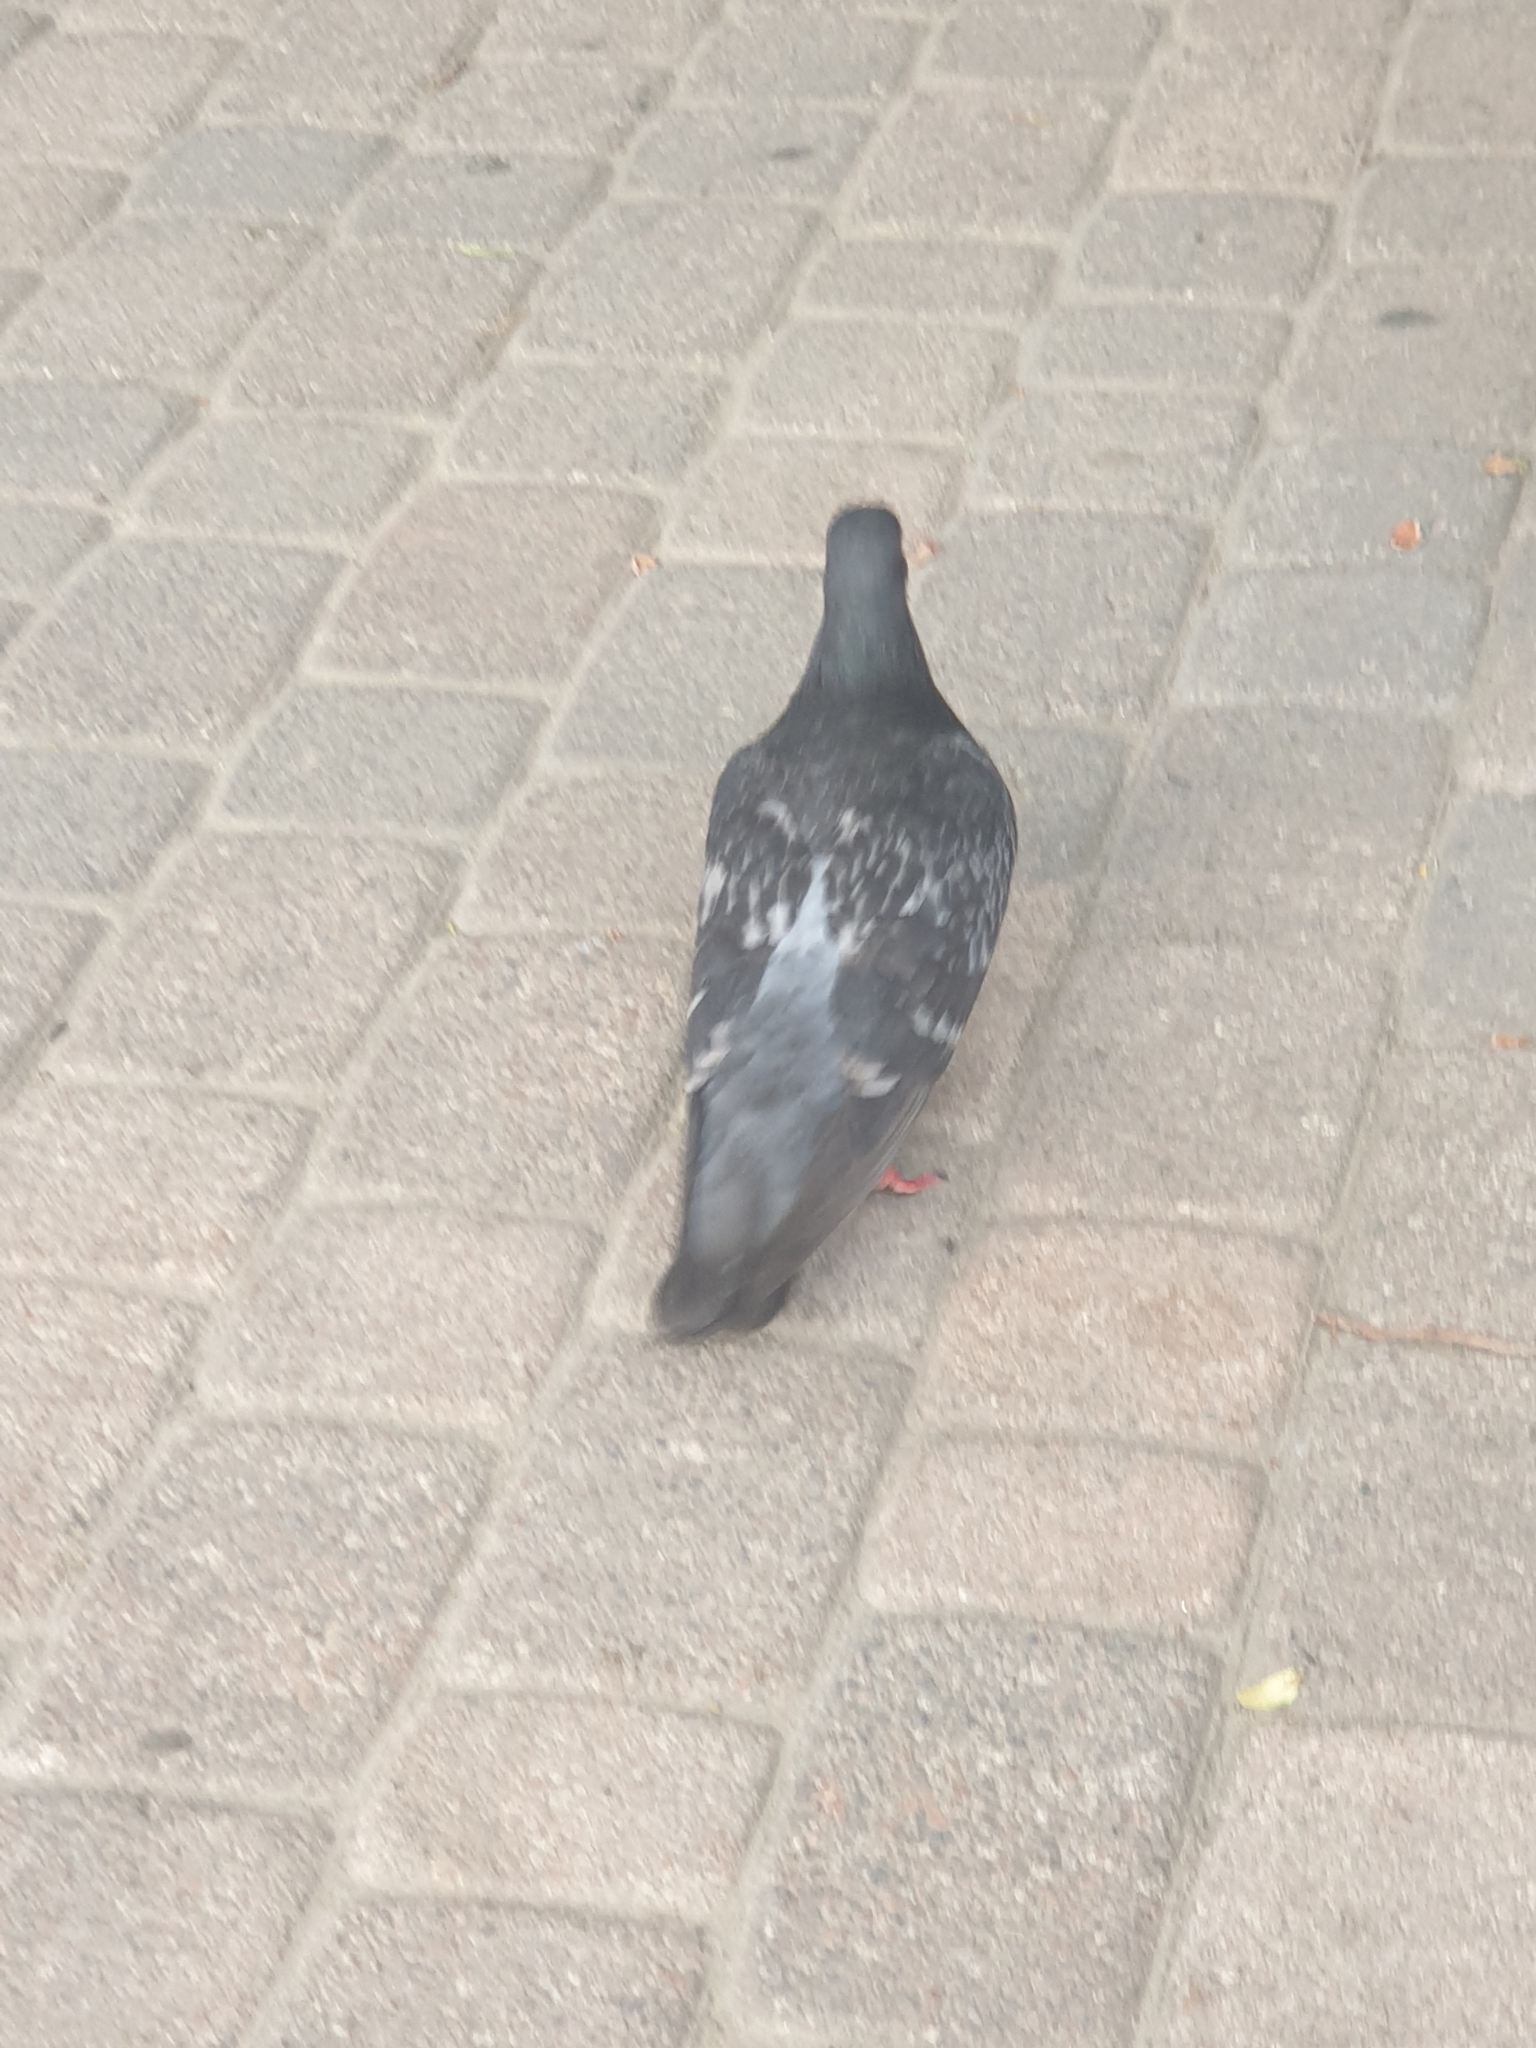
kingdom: Animalia
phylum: Chordata
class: Aves
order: Columbiformes
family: Columbidae
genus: Columba
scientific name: Columba livia
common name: Rock pigeon
